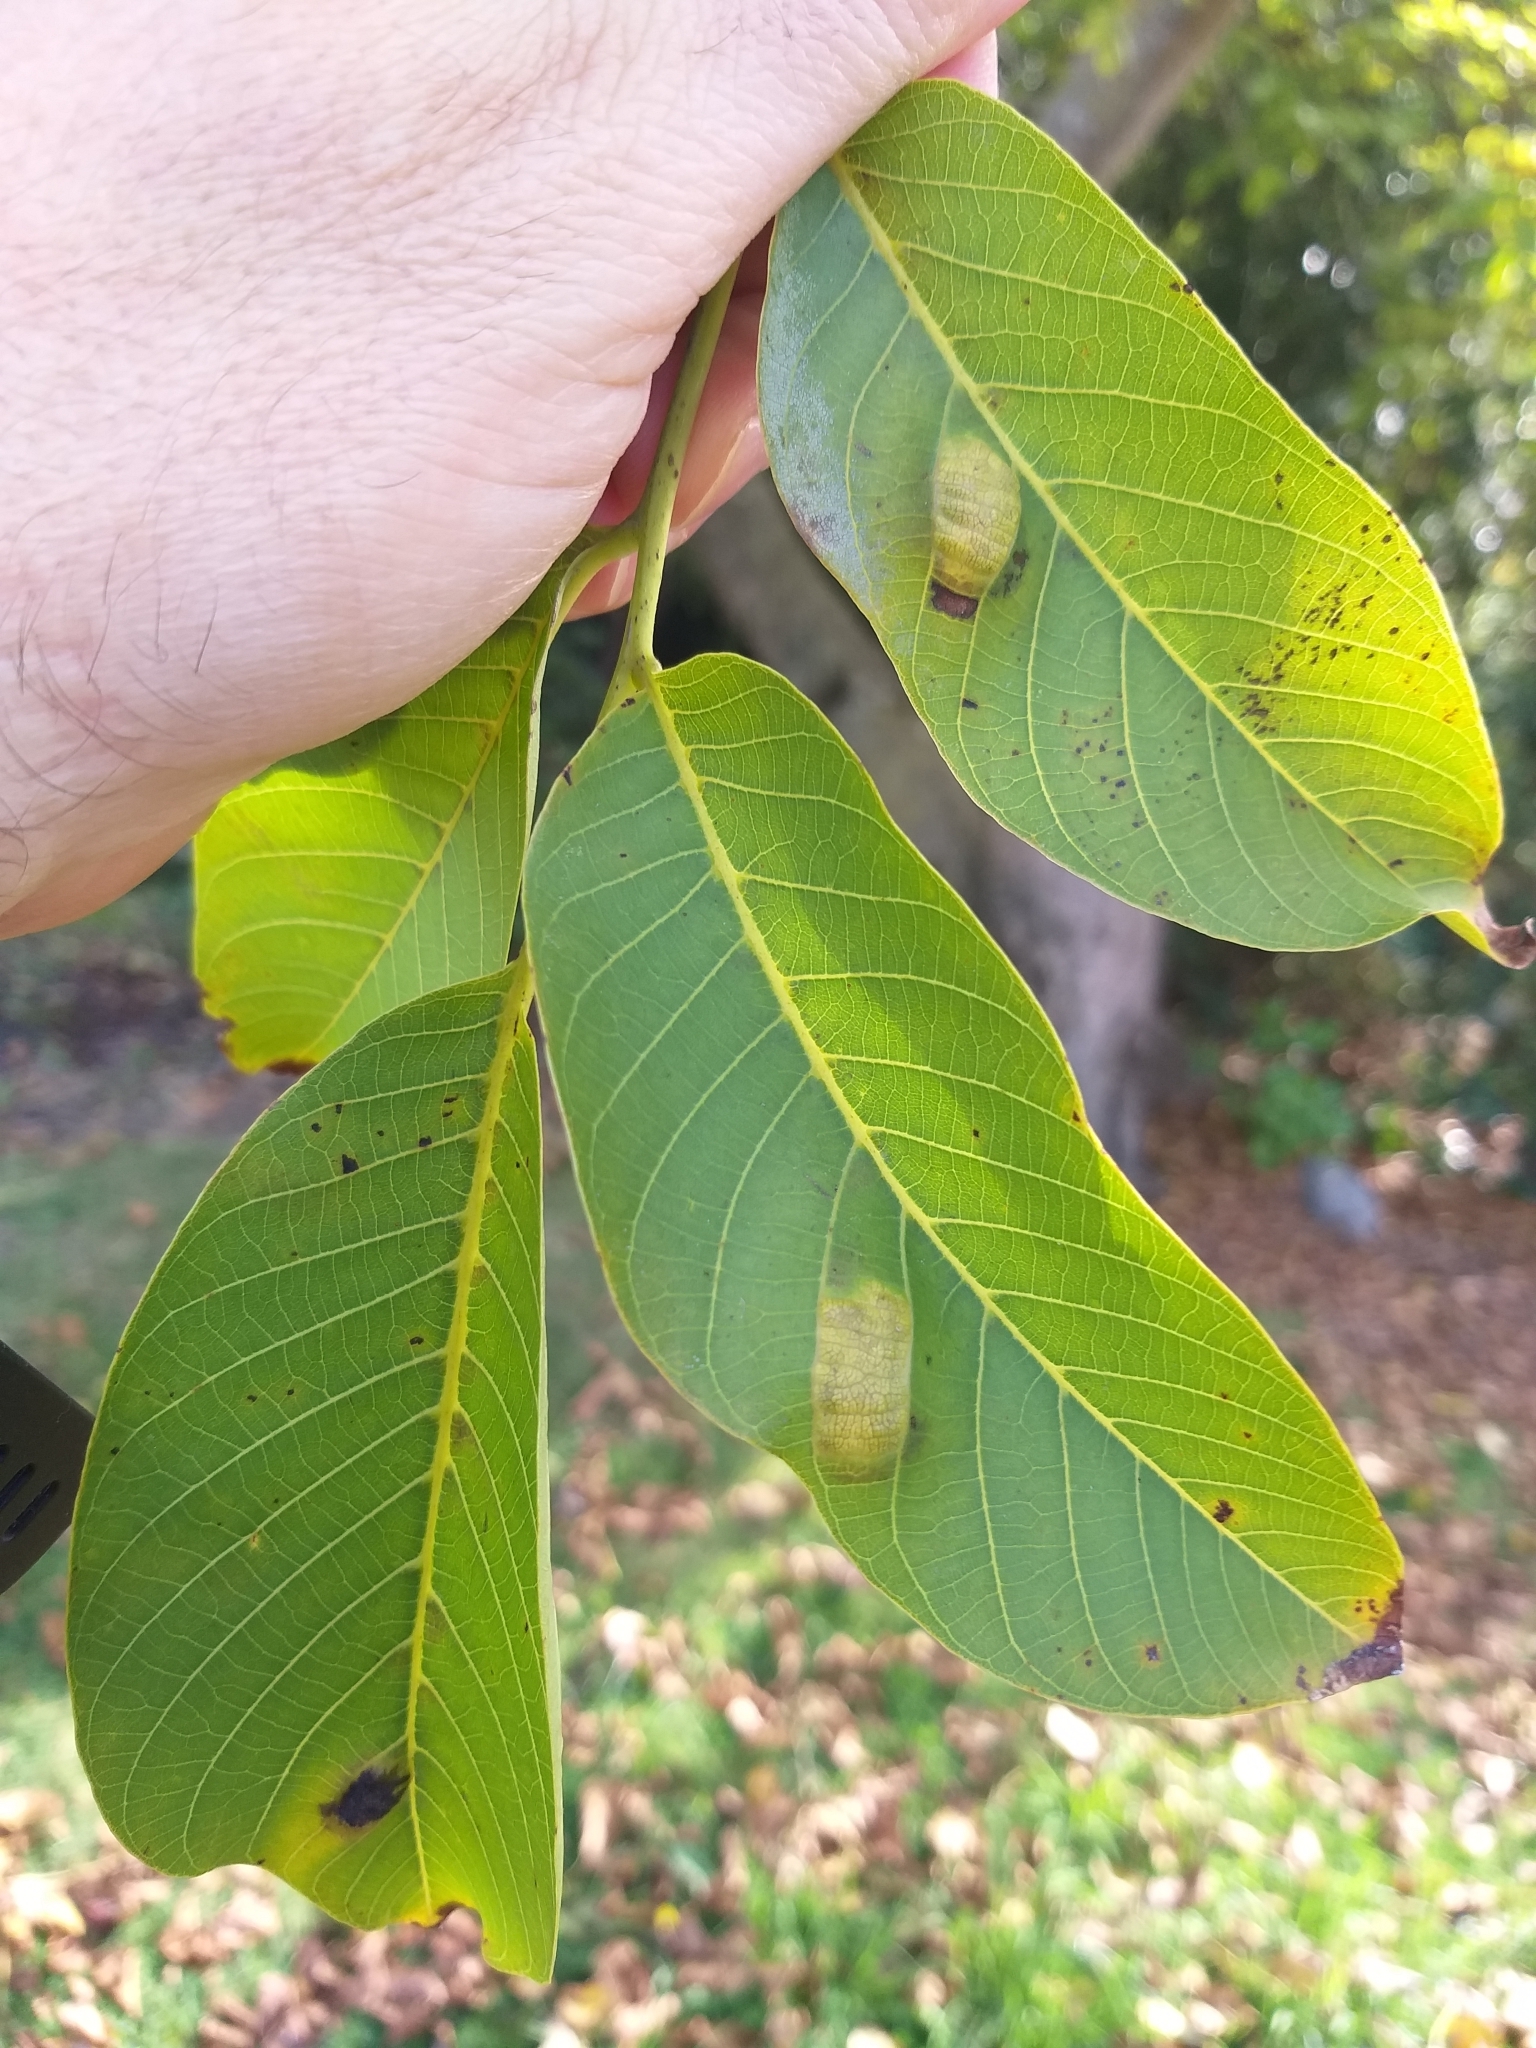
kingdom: Animalia
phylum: Arthropoda
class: Arachnida
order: Trombidiformes
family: Eriophyidae
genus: Aceria
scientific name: Aceria erinea
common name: Persian walnut erineum mite
